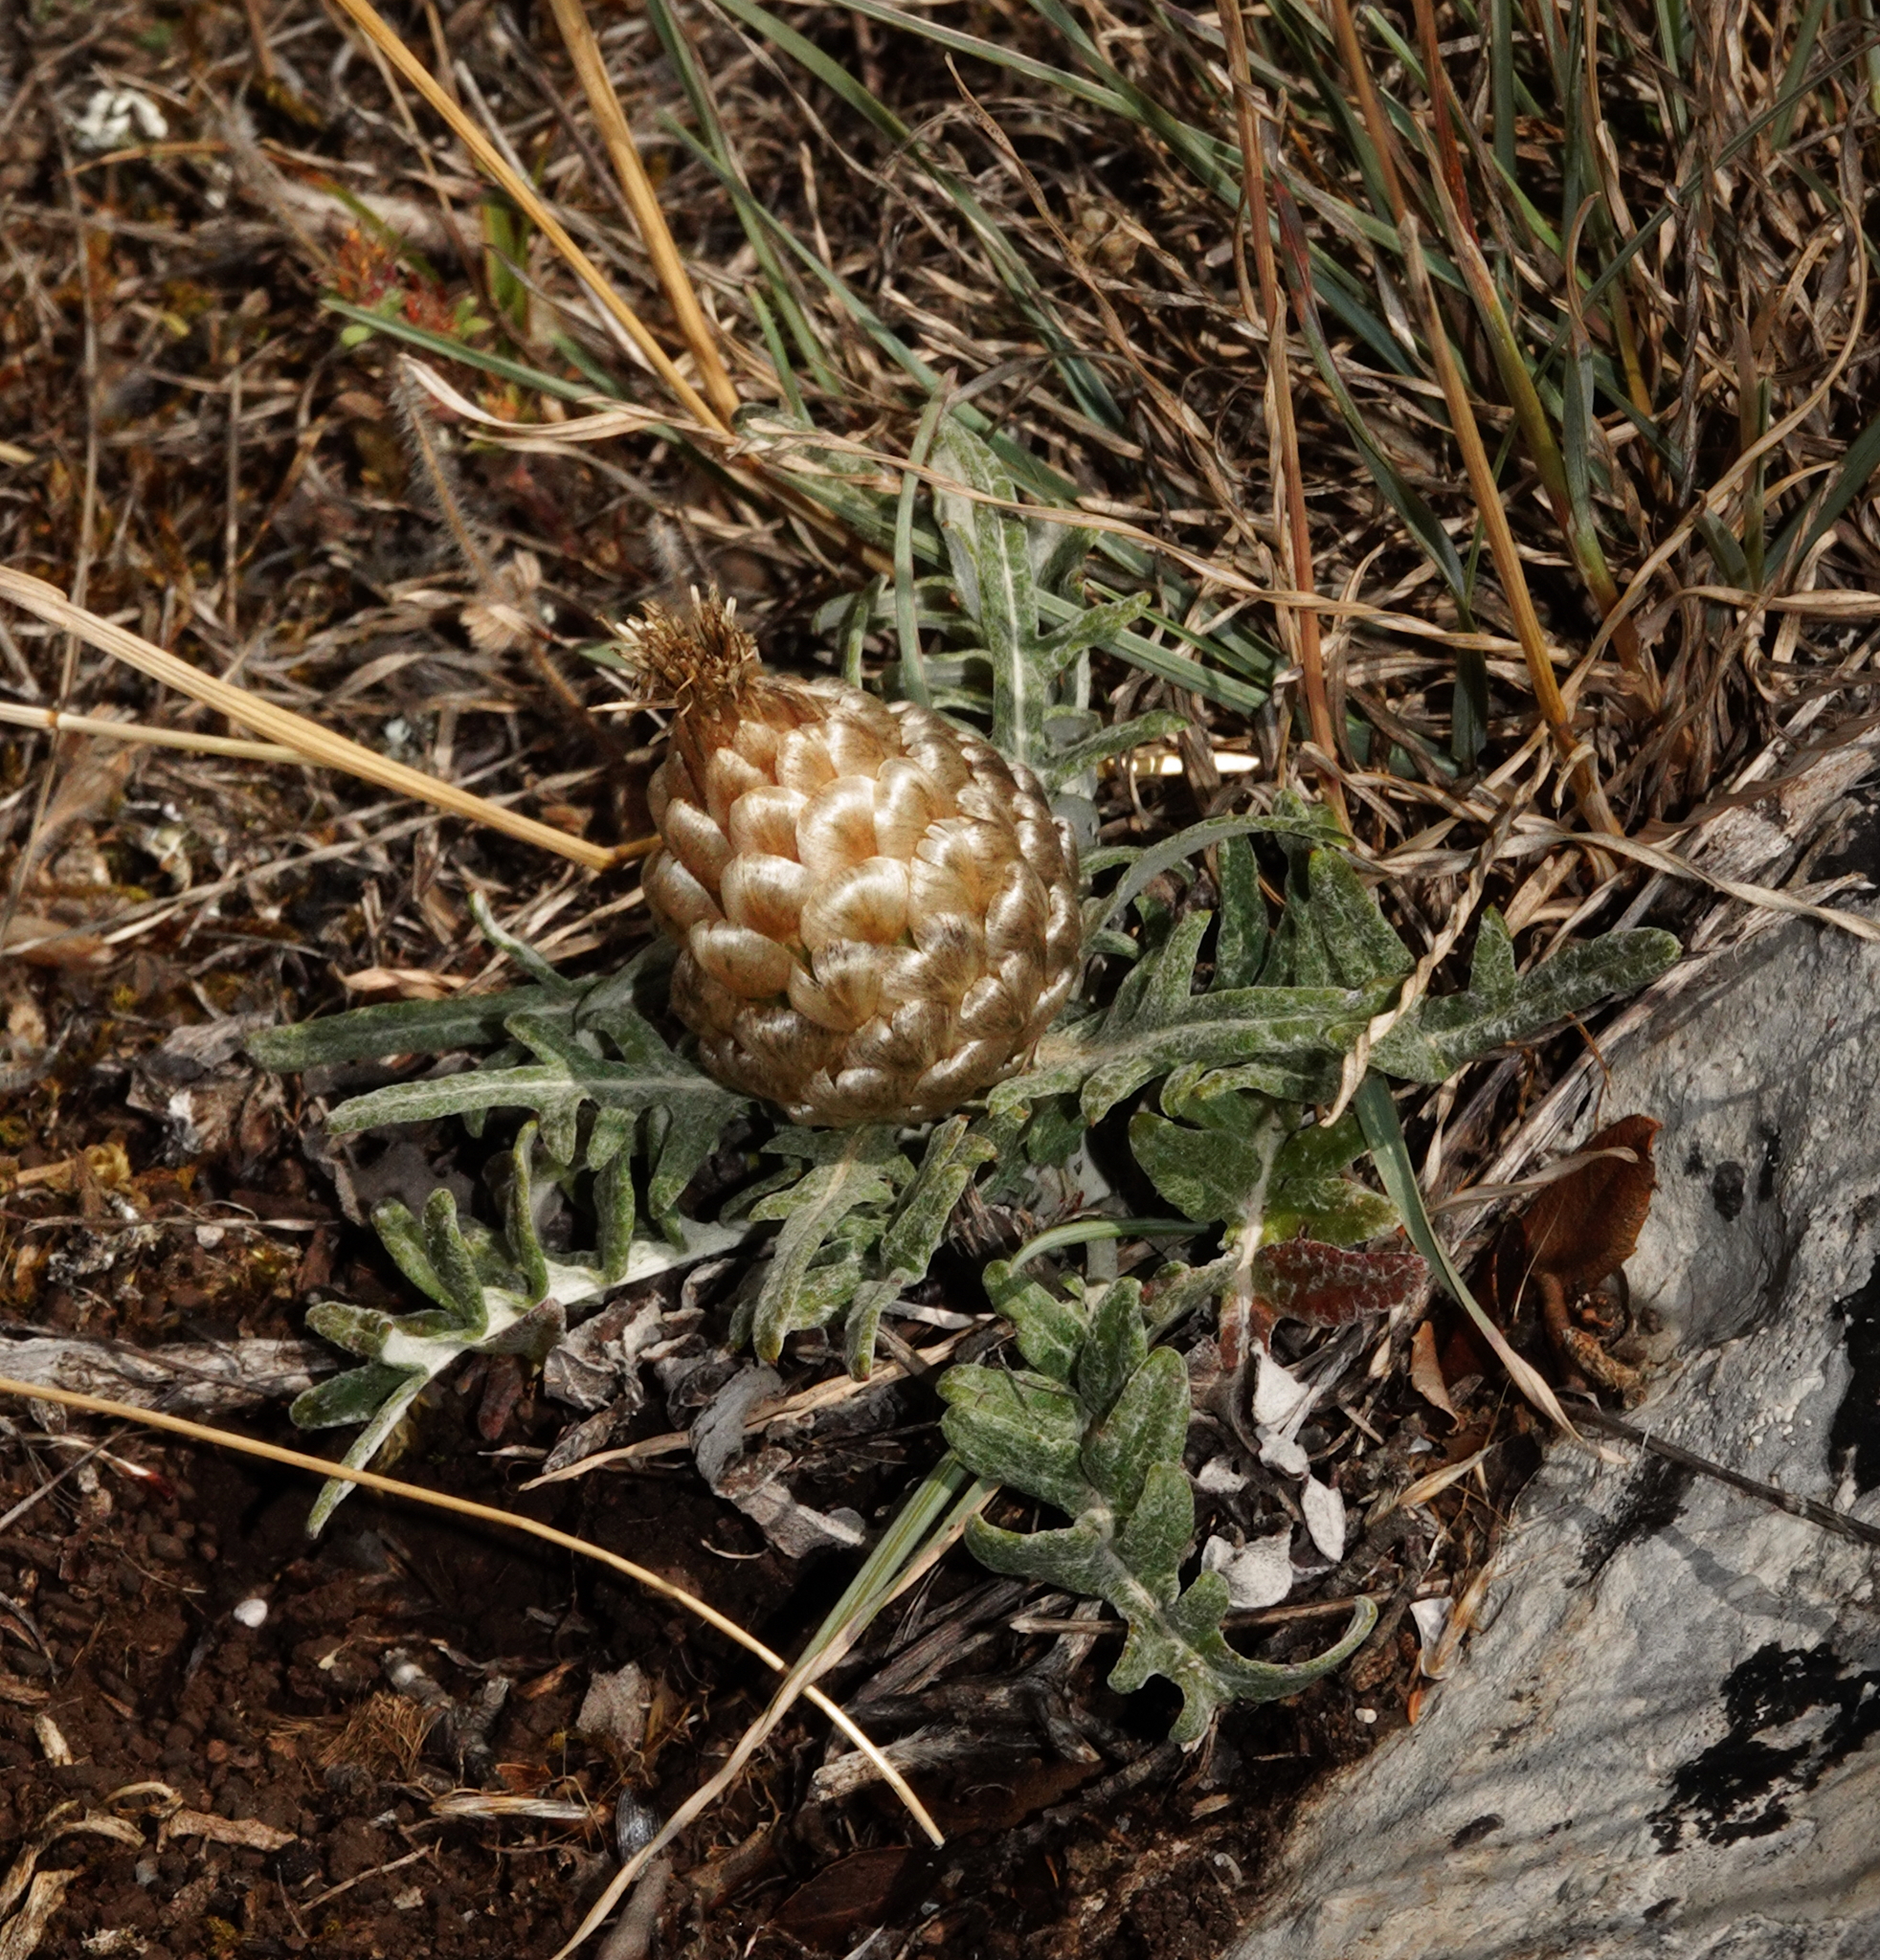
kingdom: Plantae
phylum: Tracheophyta
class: Magnoliopsida
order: Asterales
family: Asteraceae
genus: Leuzea
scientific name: Leuzea conifera
